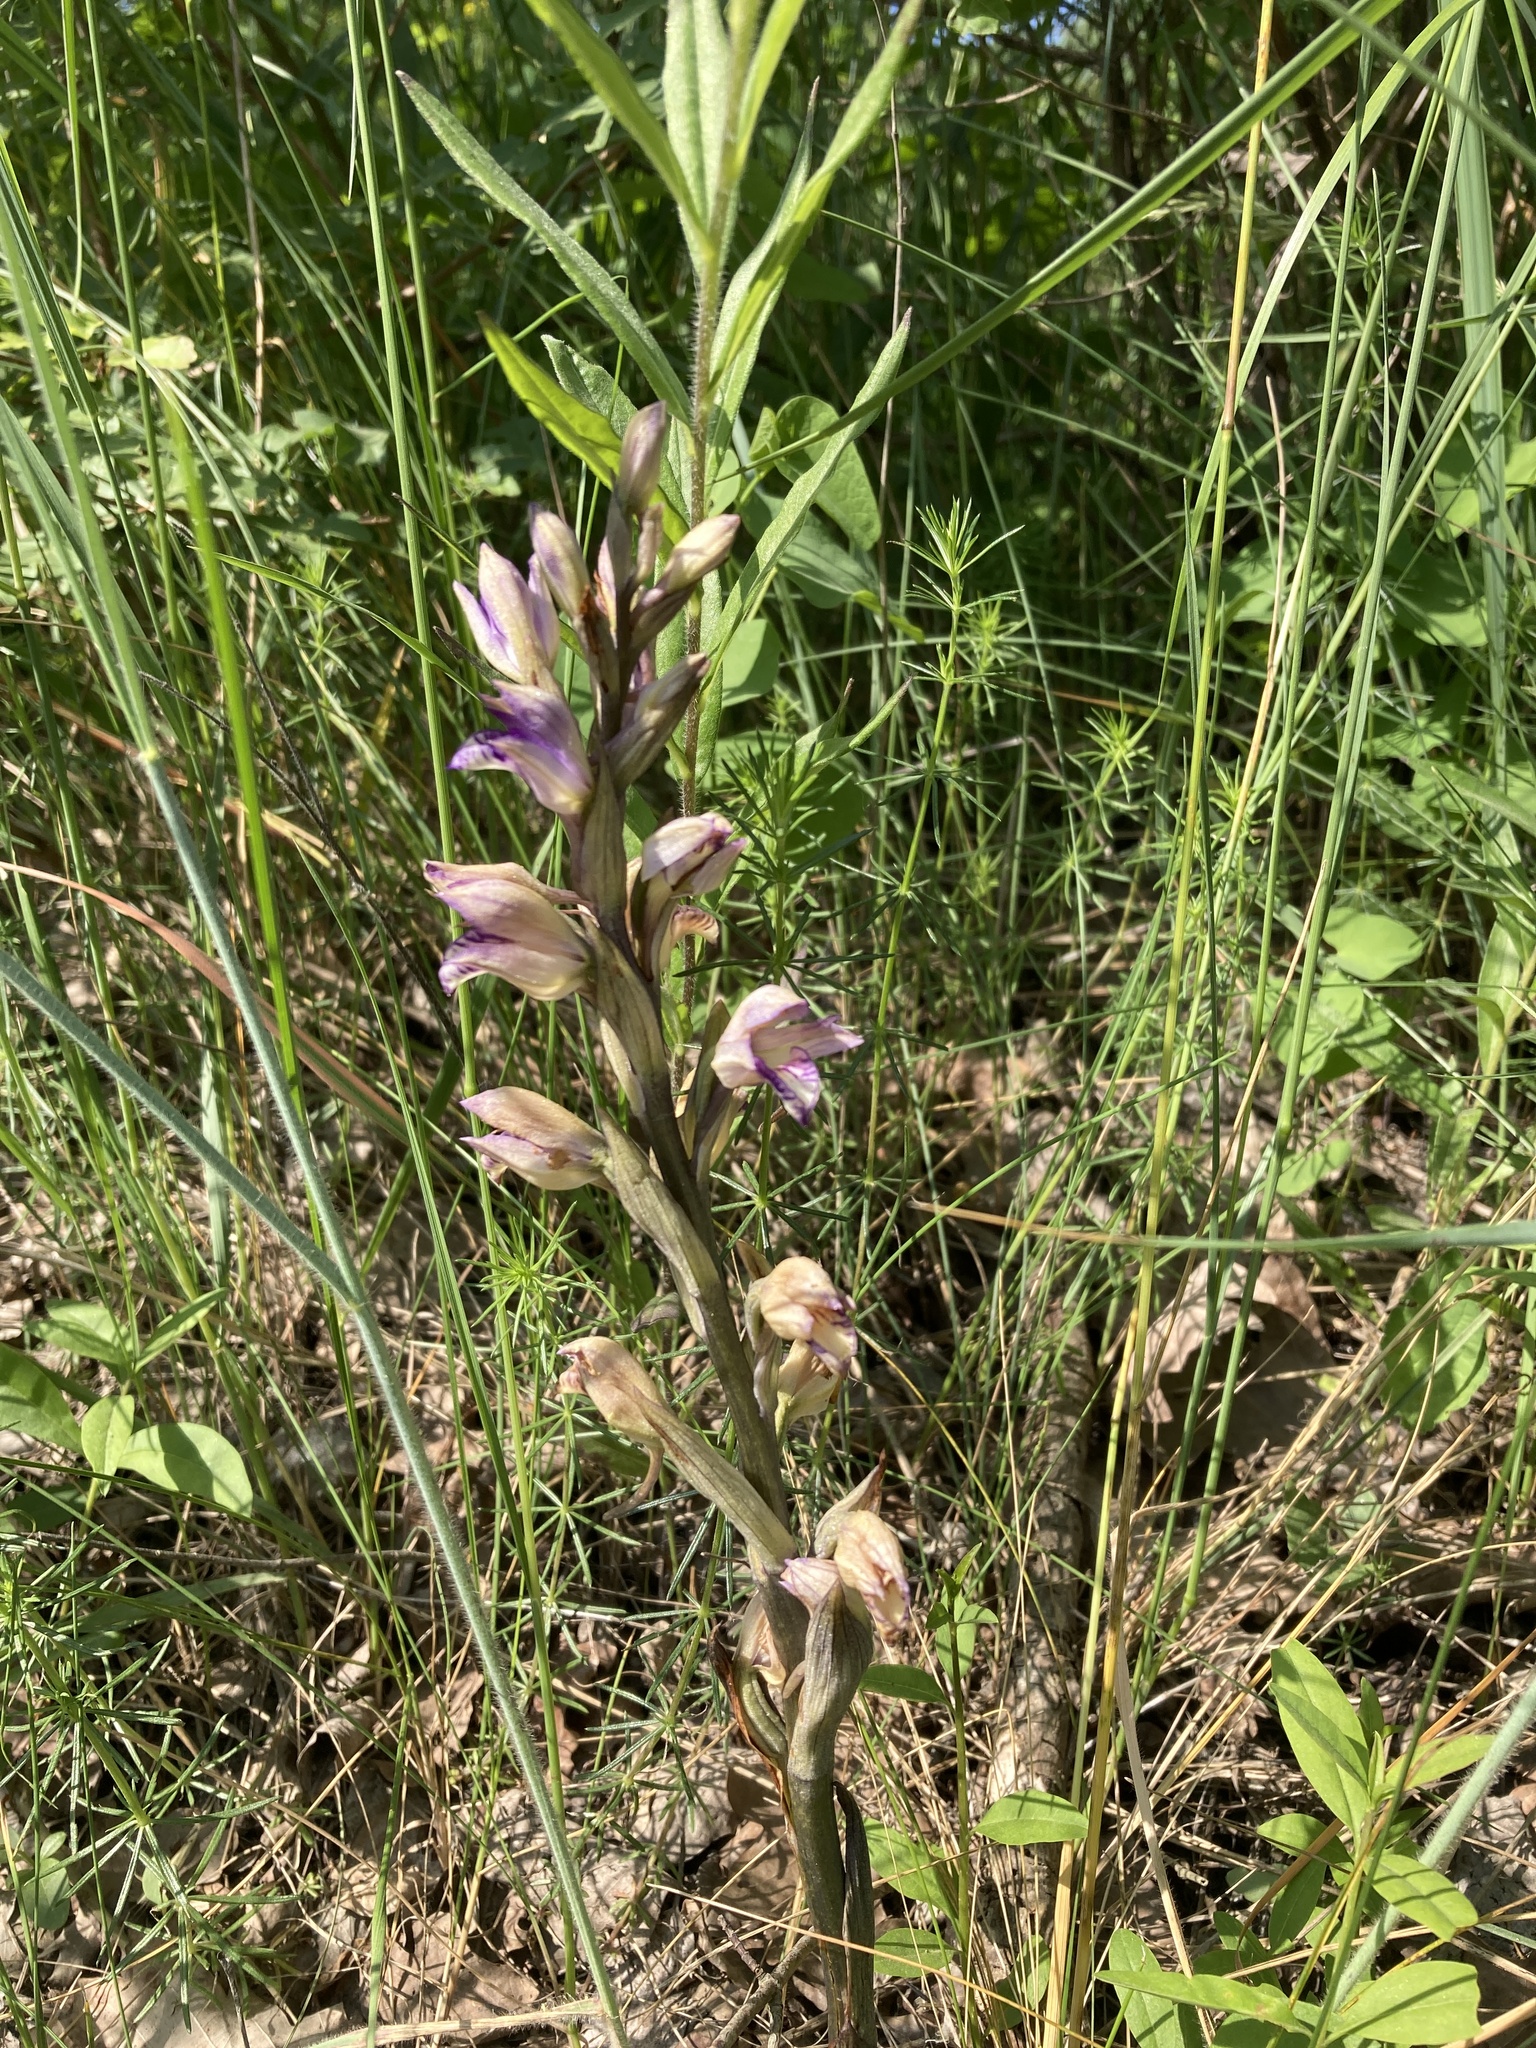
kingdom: Plantae
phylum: Tracheophyta
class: Liliopsida
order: Asparagales
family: Orchidaceae
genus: Limodorum
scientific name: Limodorum abortivum
